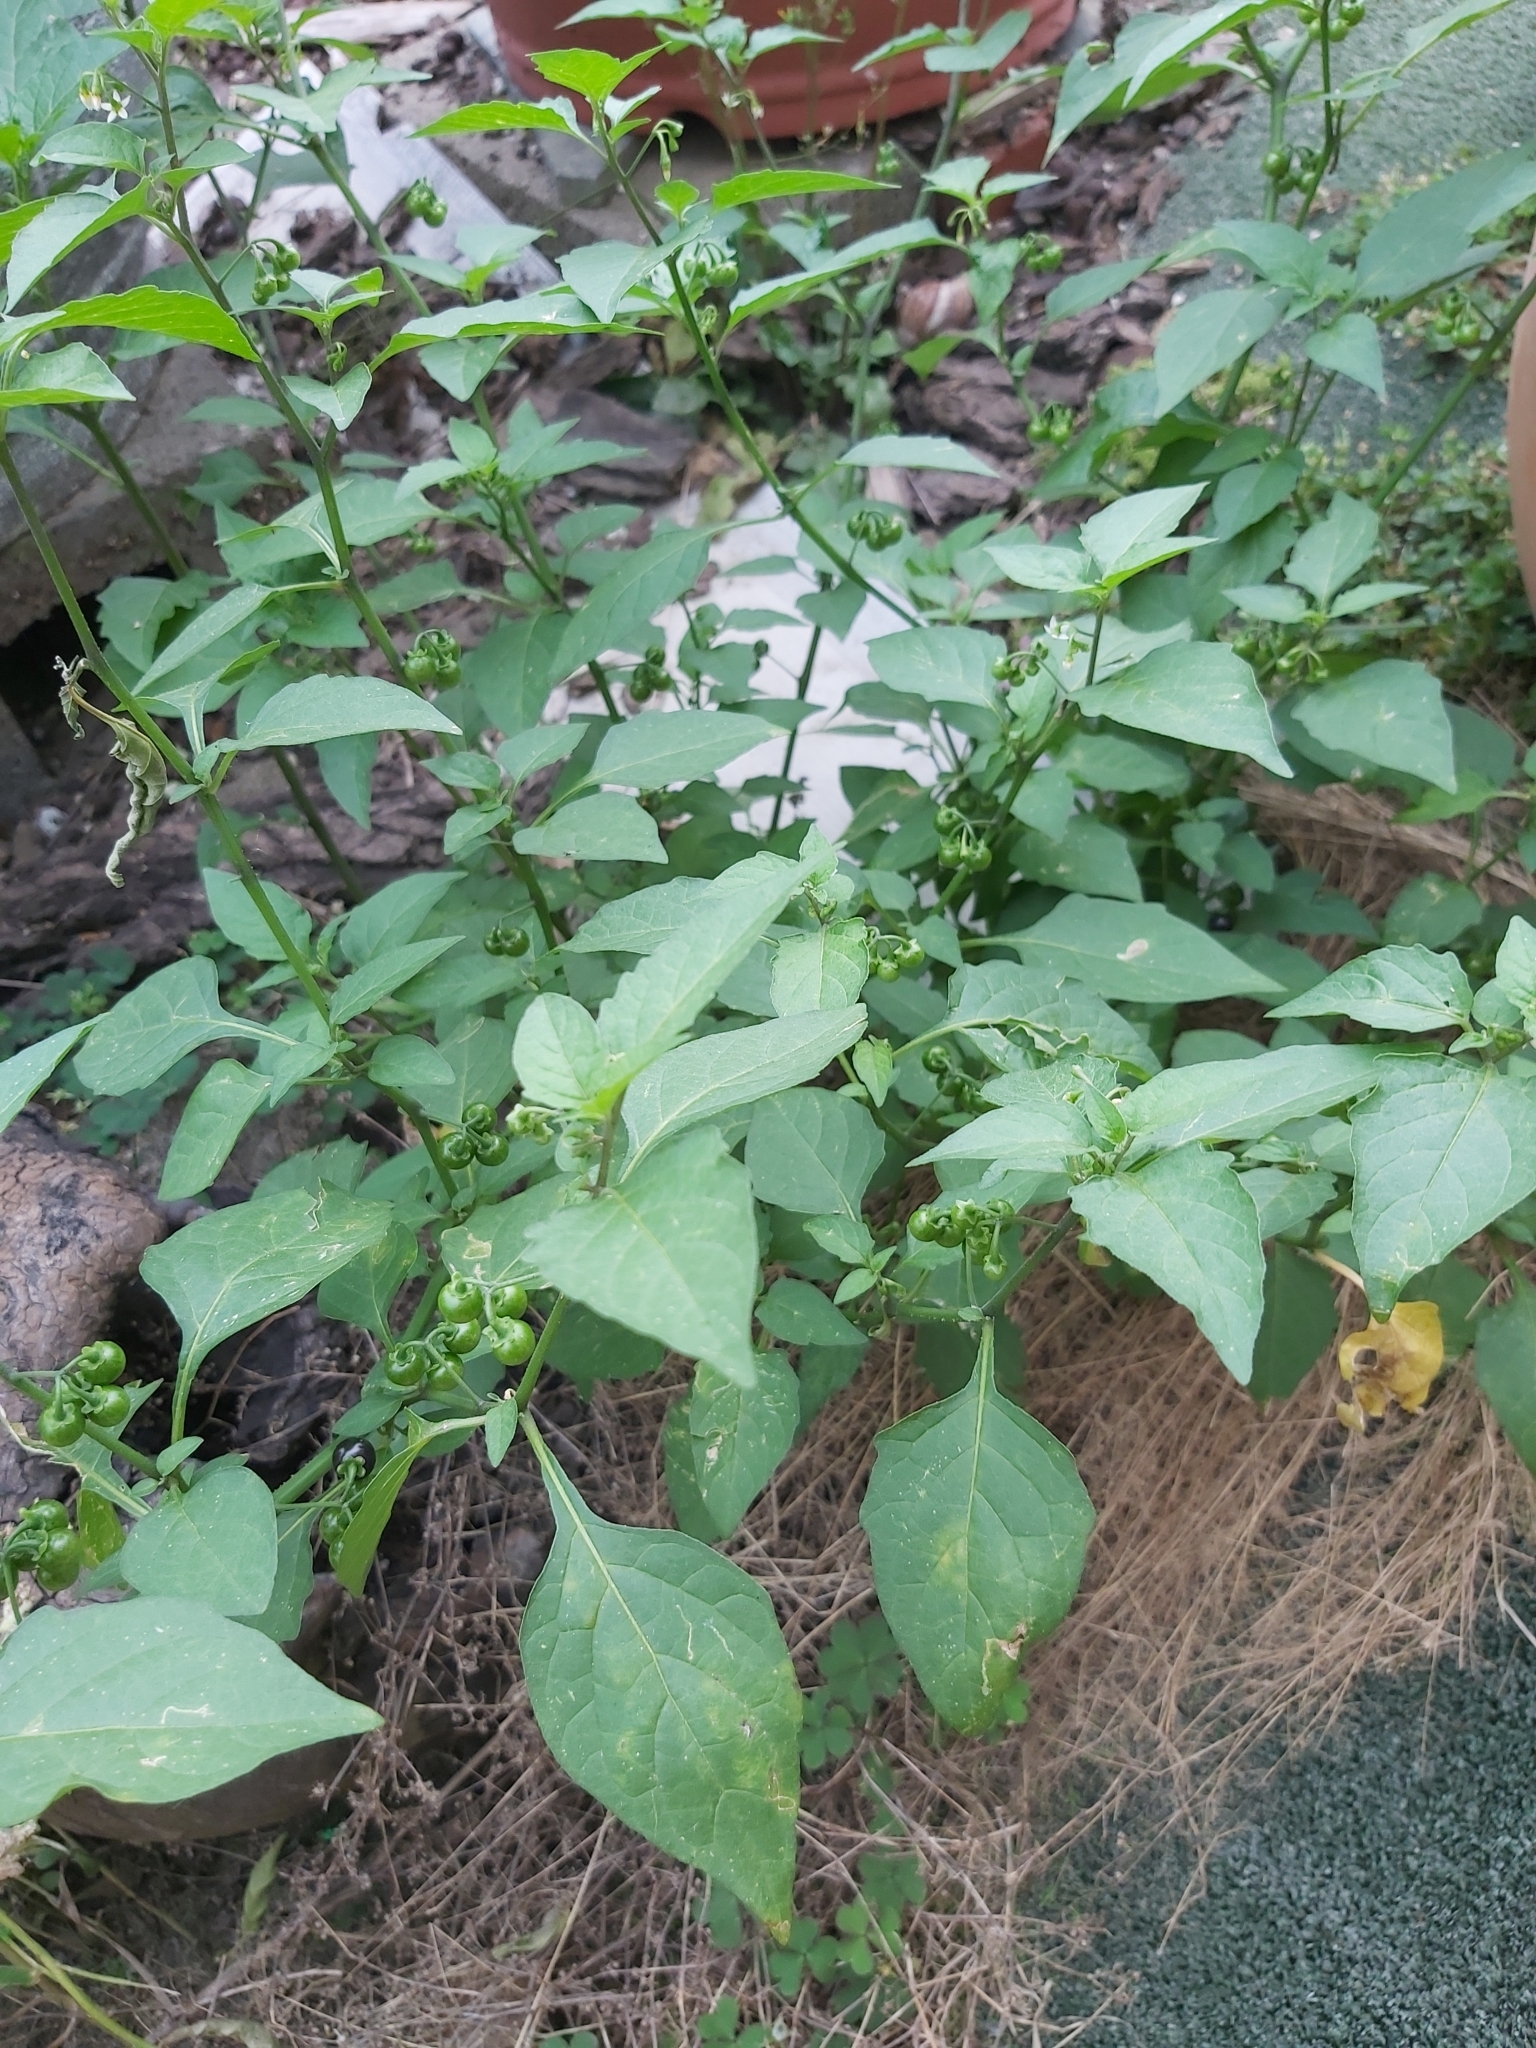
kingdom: Plantae
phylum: Tracheophyta
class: Magnoliopsida
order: Solanales
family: Solanaceae
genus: Solanum
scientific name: Solanum americanum
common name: American black nightshade
